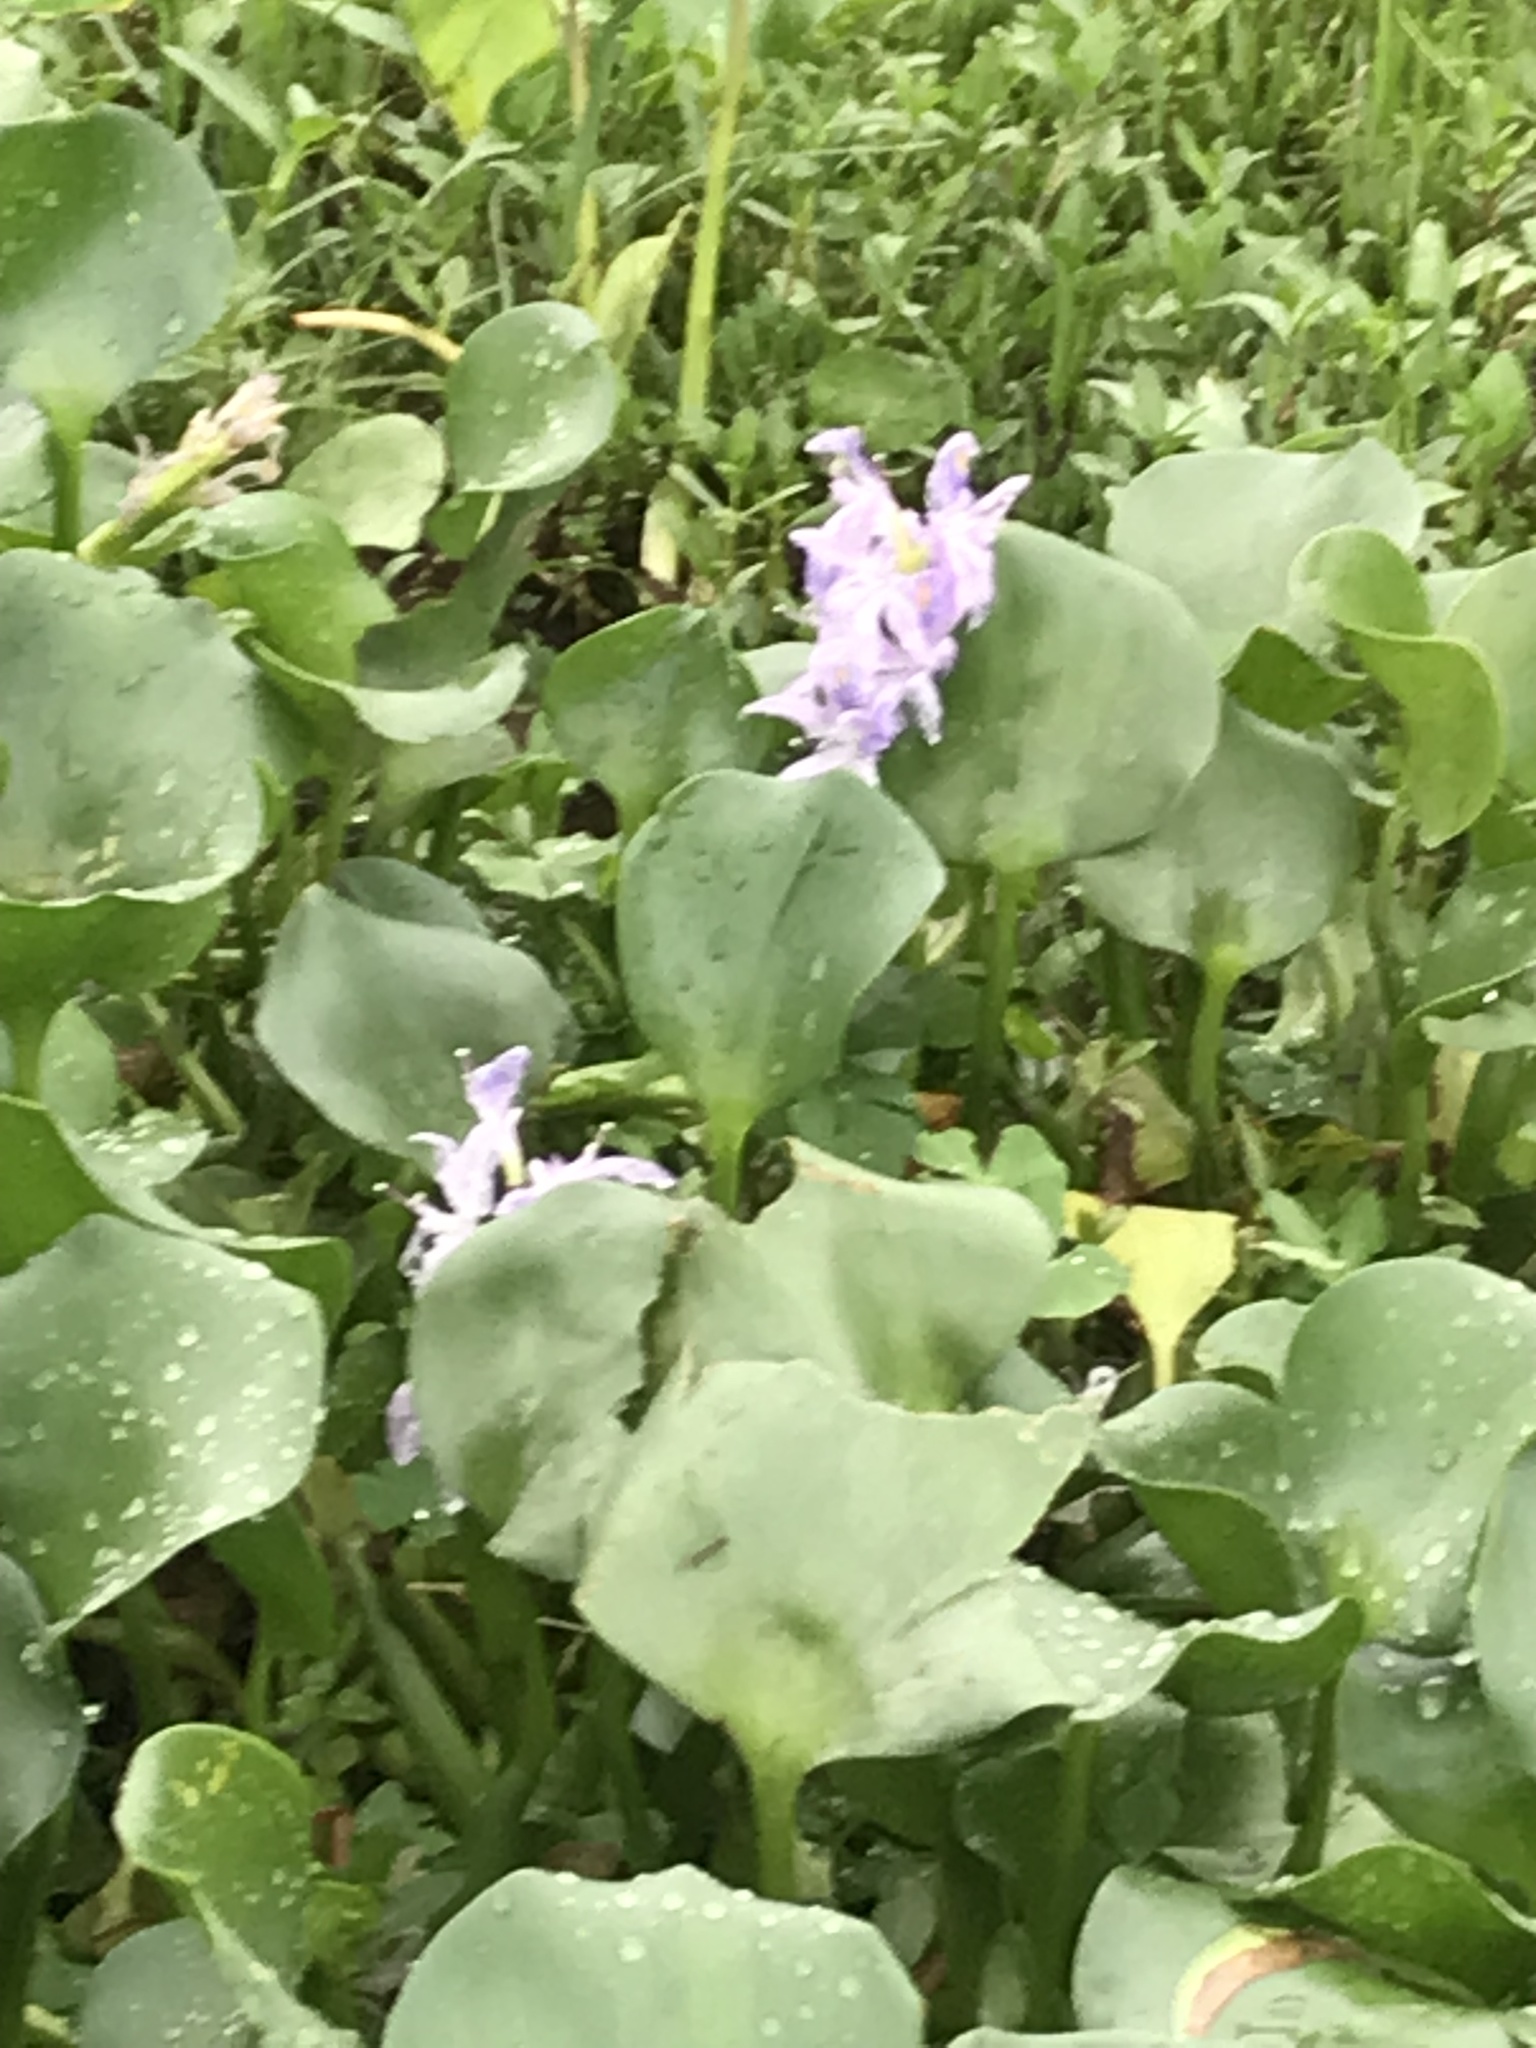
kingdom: Plantae
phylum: Tracheophyta
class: Liliopsida
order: Commelinales
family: Pontederiaceae
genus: Pontederia
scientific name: Pontederia crassipes
